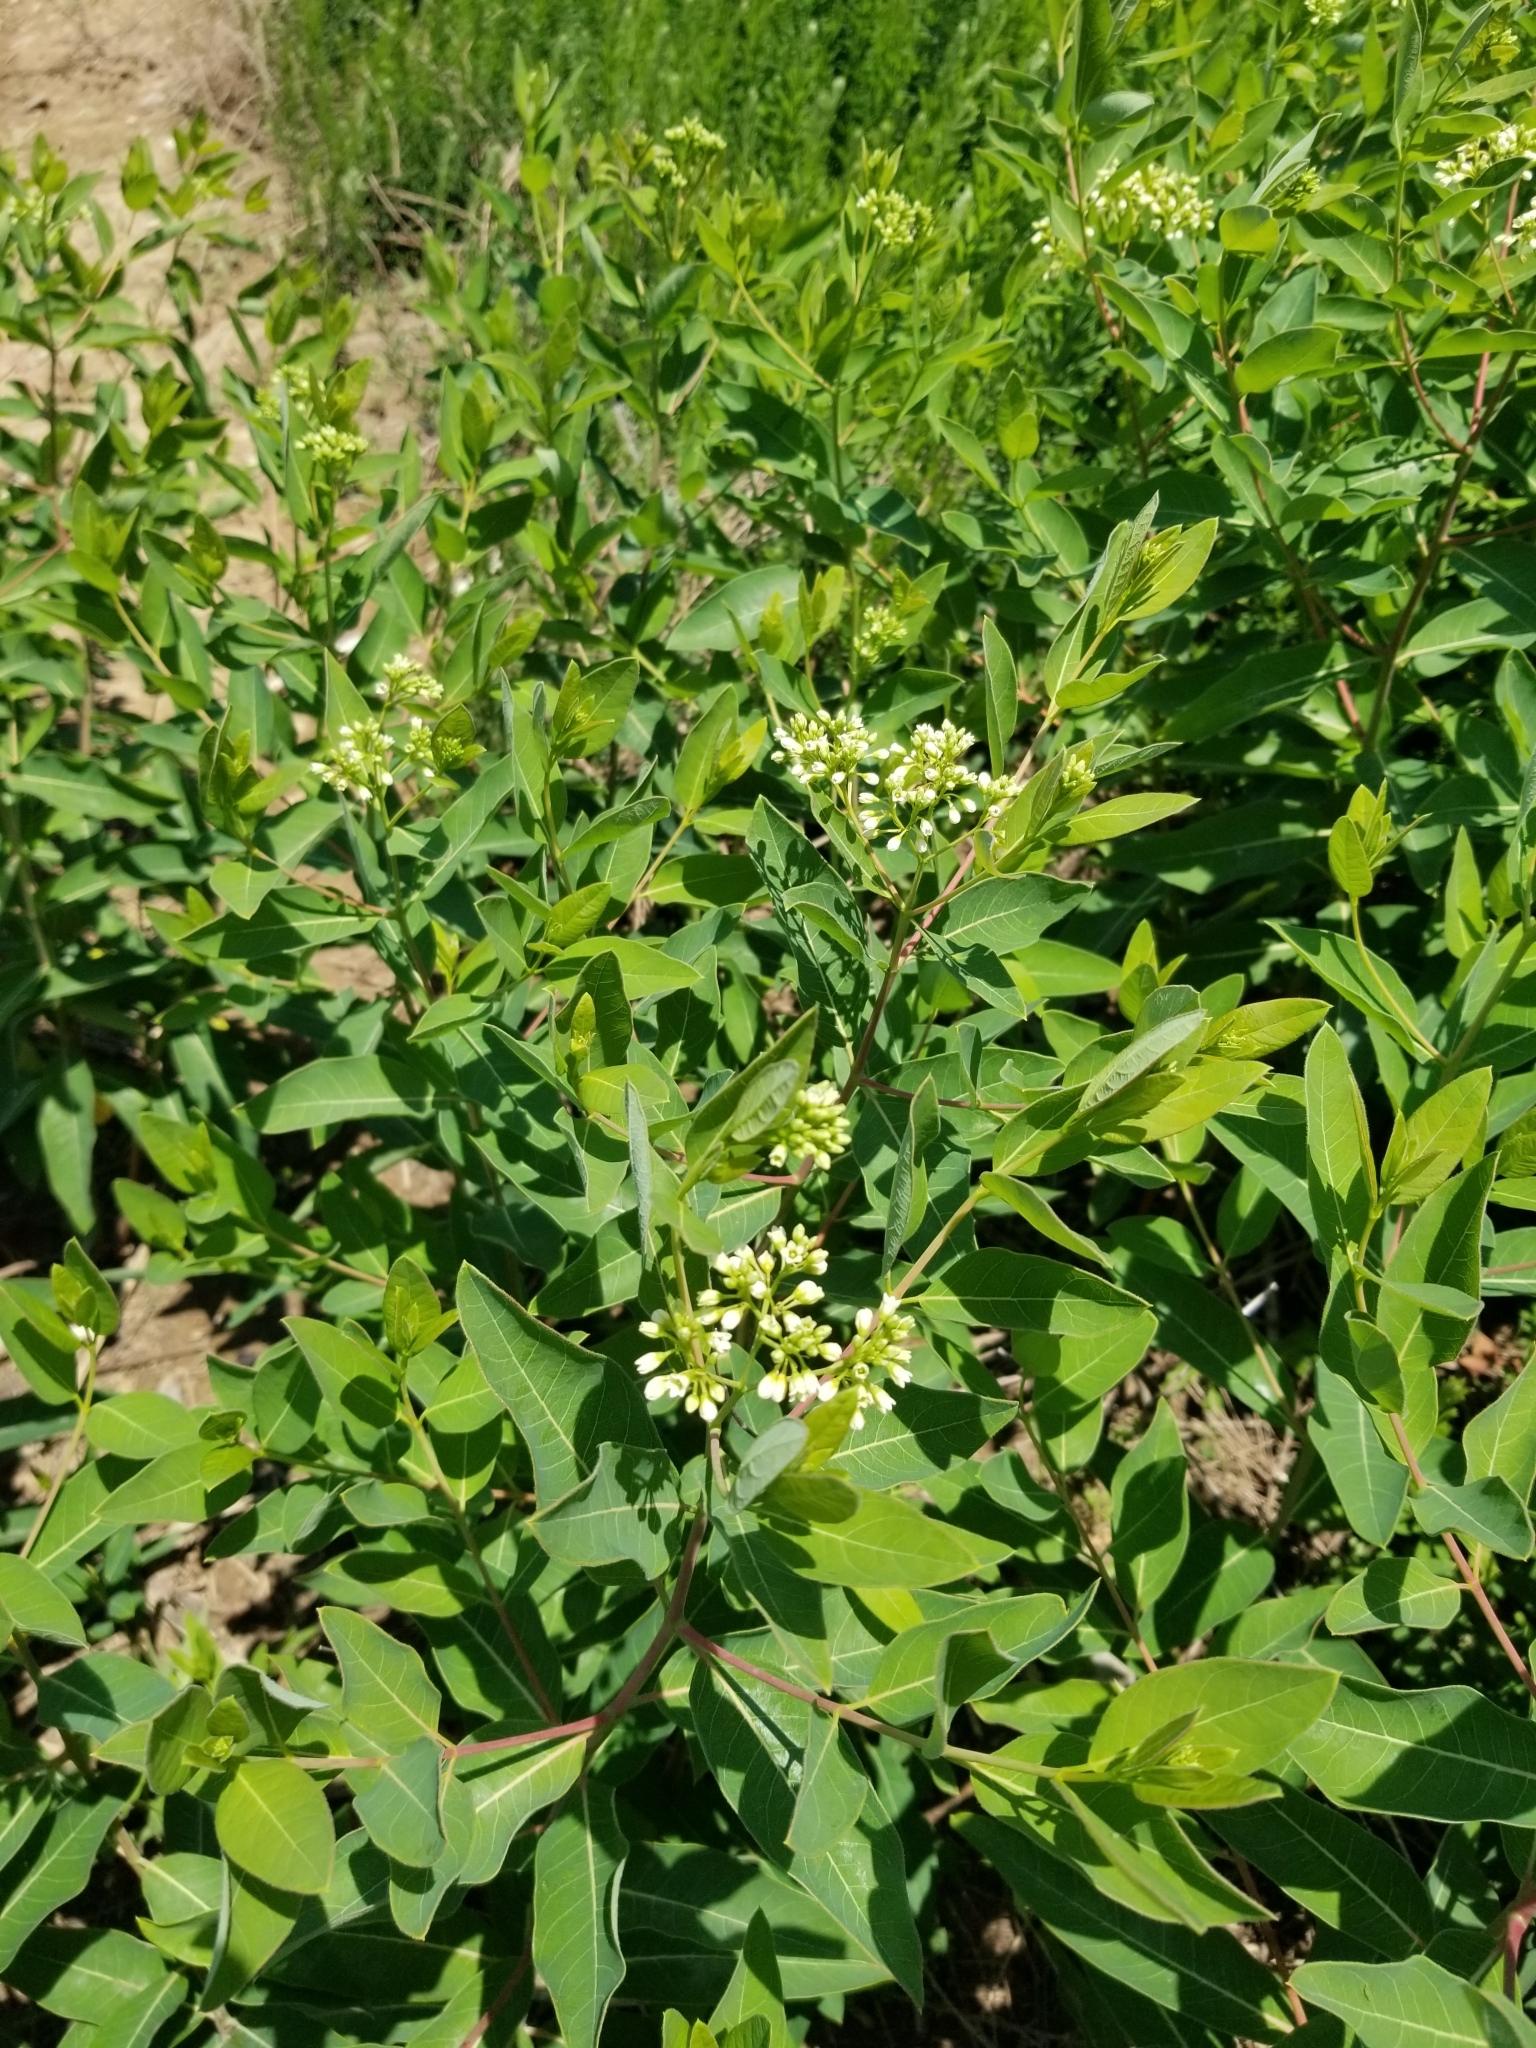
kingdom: Plantae
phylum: Tracheophyta
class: Magnoliopsida
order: Gentianales
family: Apocynaceae
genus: Apocynum
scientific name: Apocynum cannabinum
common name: Hemp dogbane
